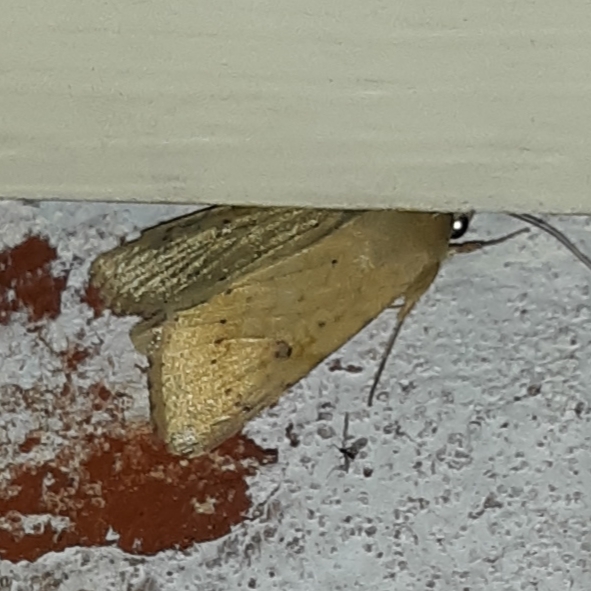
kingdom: Animalia
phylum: Arthropoda
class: Insecta
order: Lepidoptera
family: Noctuidae
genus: Helicoverpa
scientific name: Helicoverpa zea
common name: Bollworm
